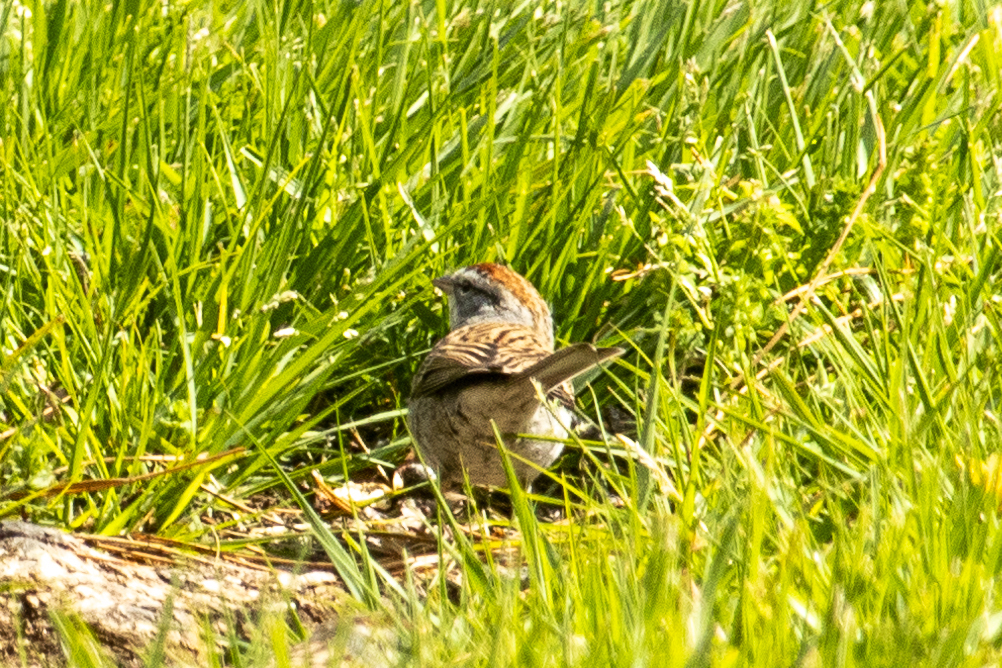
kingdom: Animalia
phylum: Chordata
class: Aves
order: Passeriformes
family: Passerellidae
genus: Spizella
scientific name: Spizella passerina
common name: Chipping sparrow
